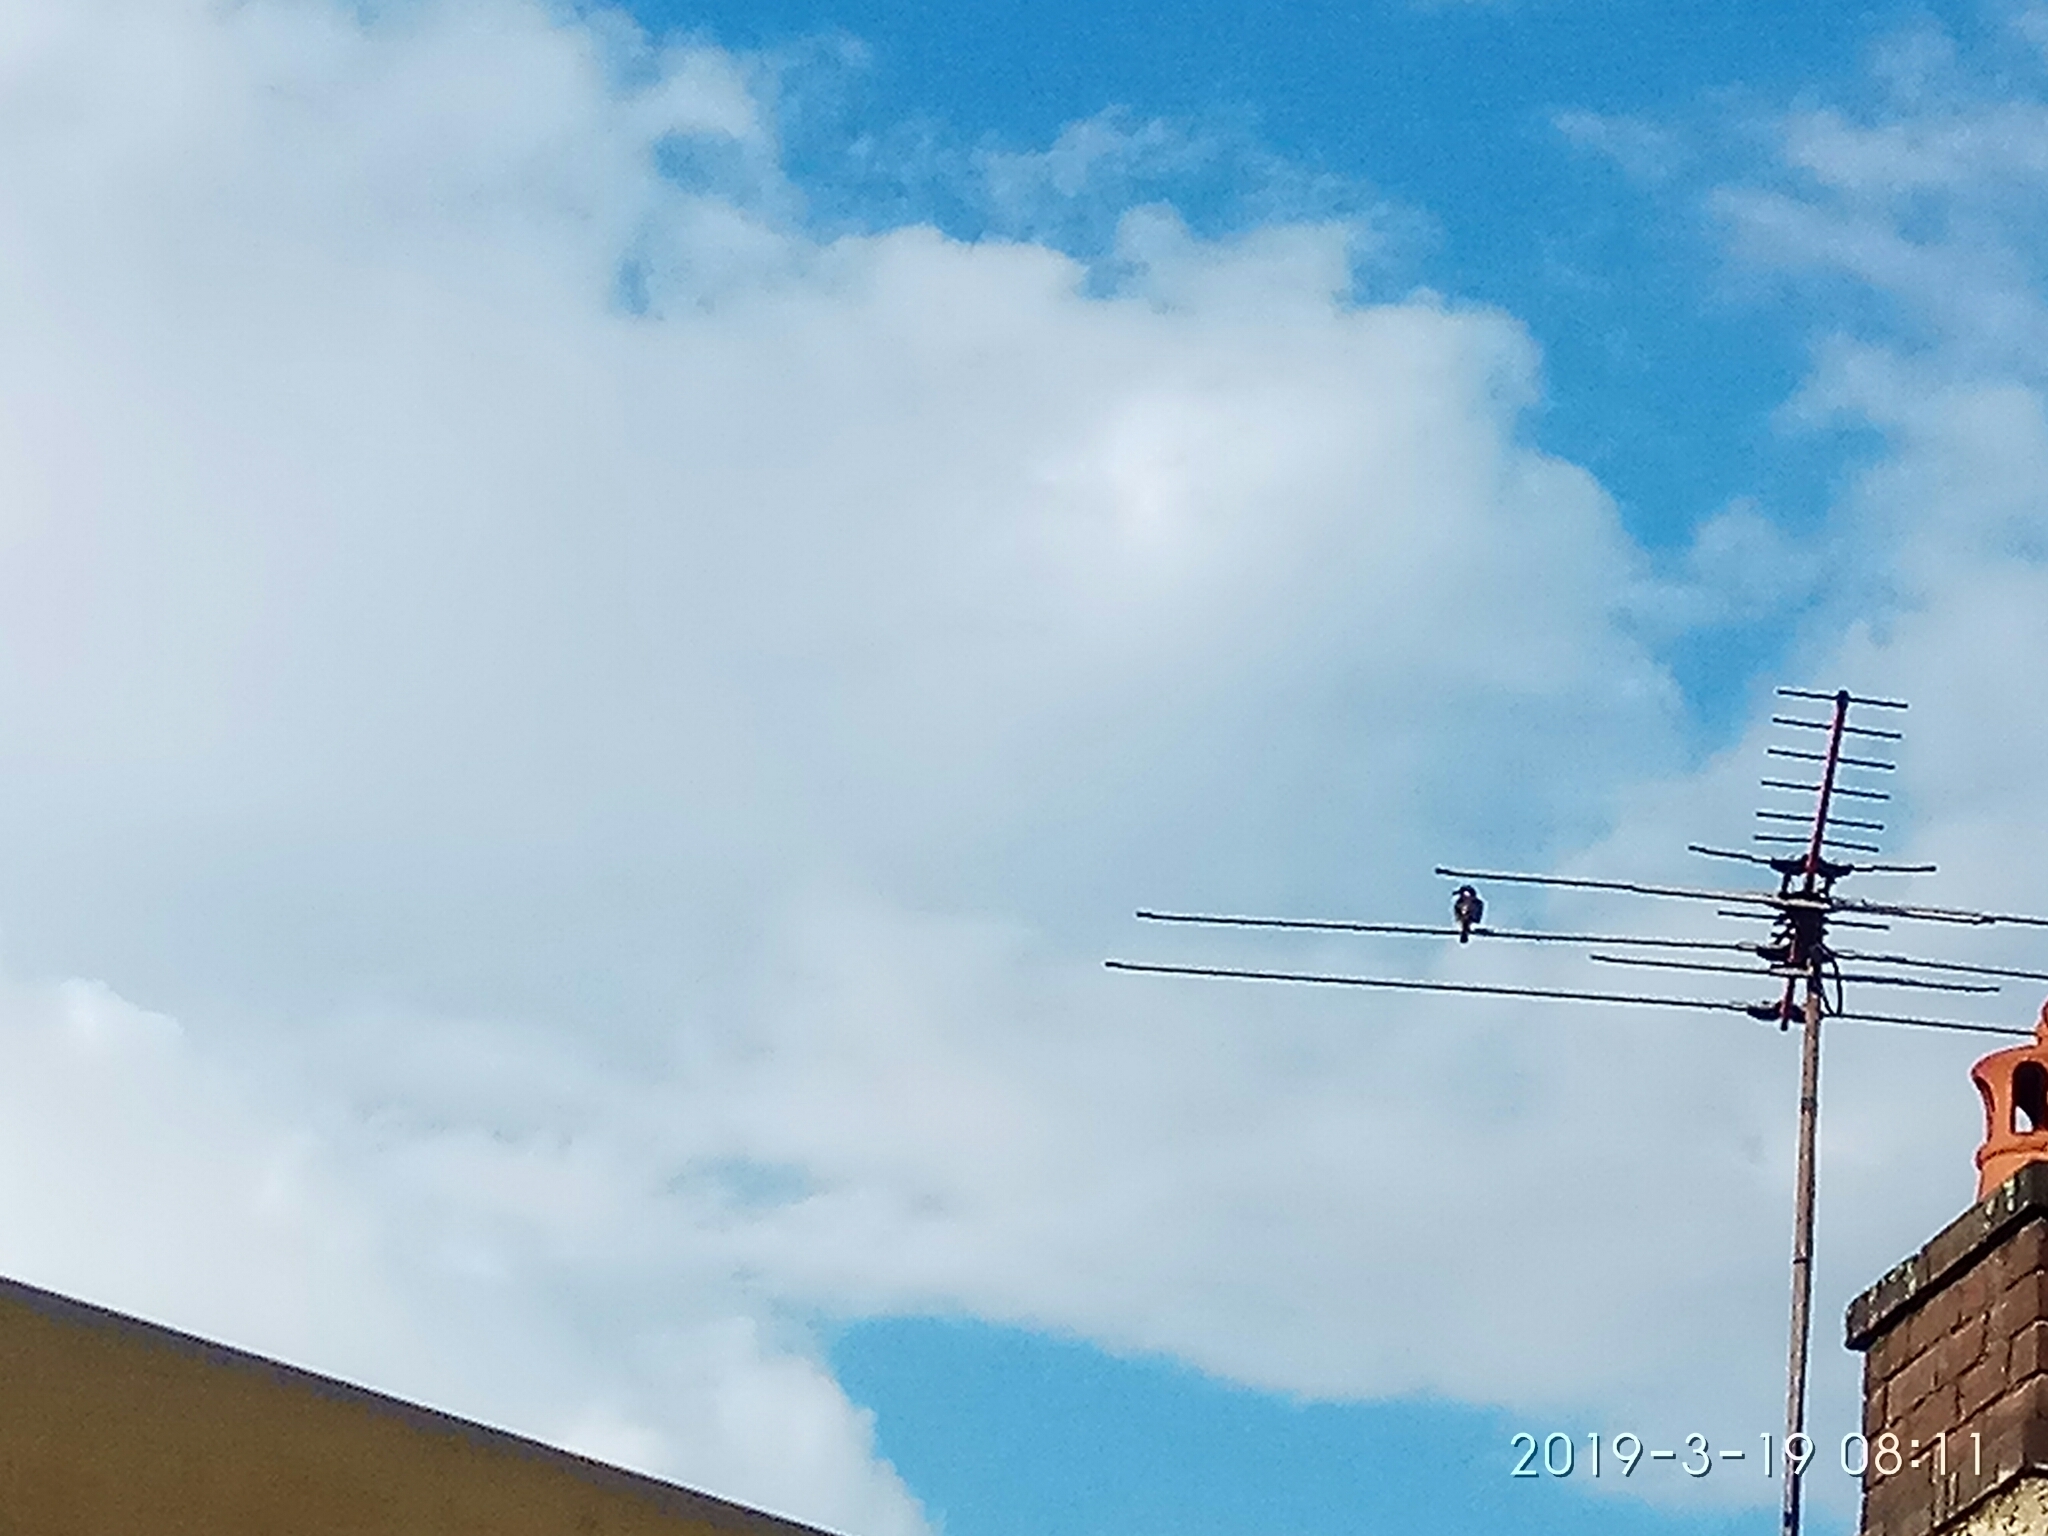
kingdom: Animalia
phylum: Chordata
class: Aves
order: Passeriformes
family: Meliphagidae
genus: Phylidonyris
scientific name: Phylidonyris novaehollandiae
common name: New holland honeyeater
